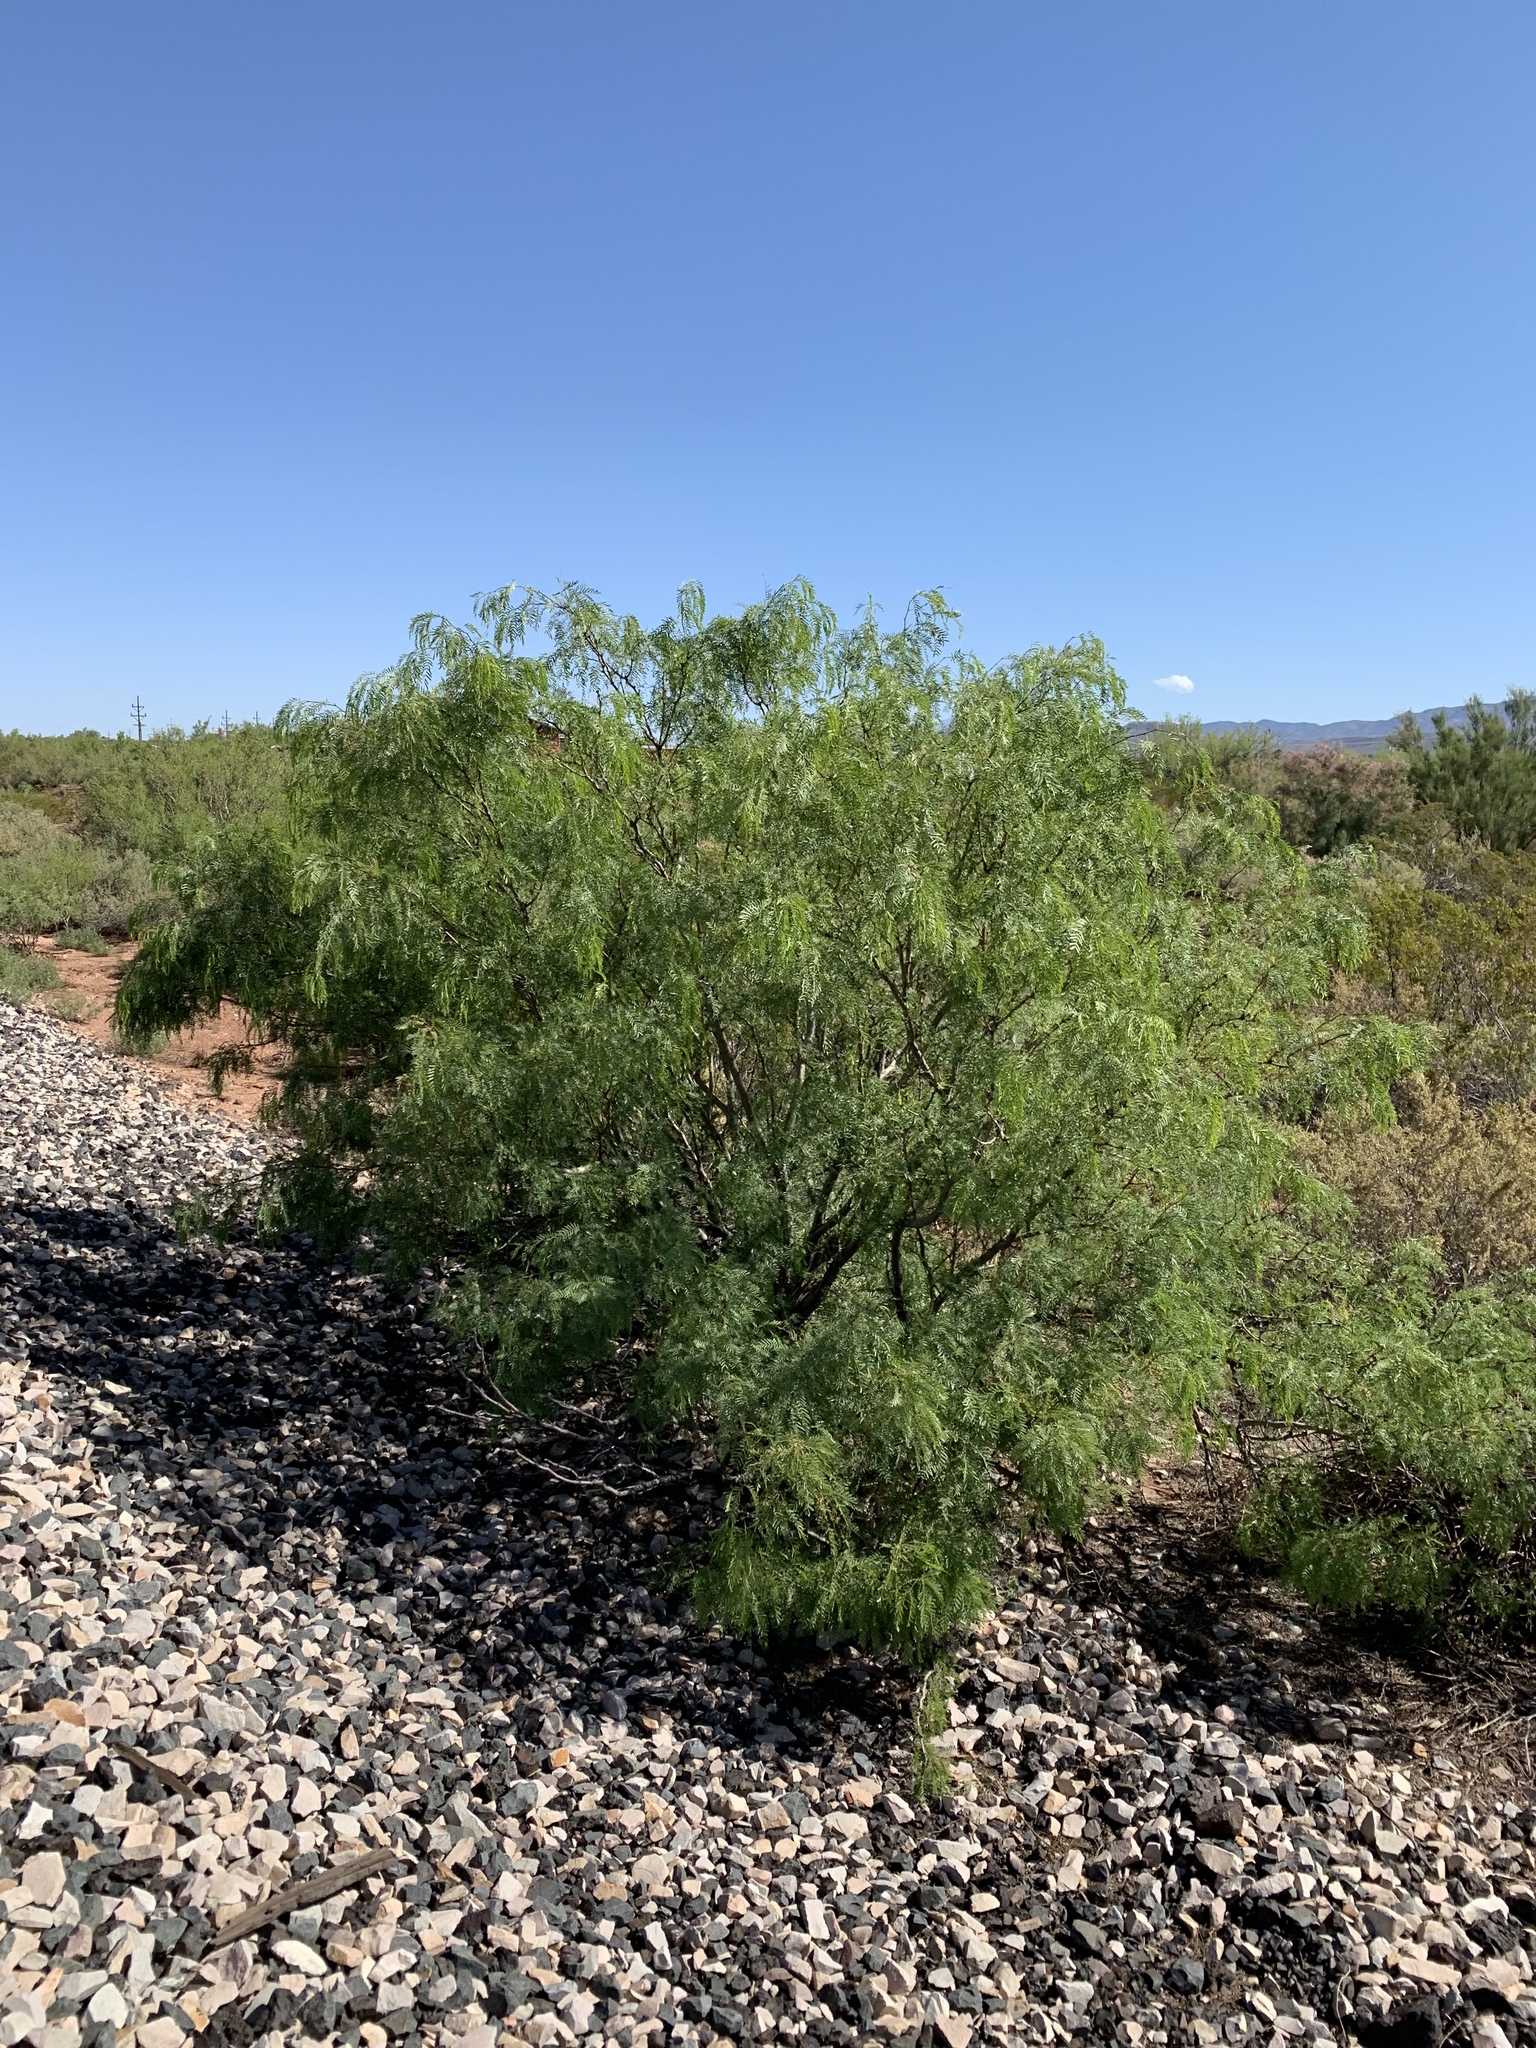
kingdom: Plantae
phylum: Tracheophyta
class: Magnoliopsida
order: Fabales
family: Fabaceae
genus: Prosopis
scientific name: Prosopis glandulosa
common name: Honey mesquite
